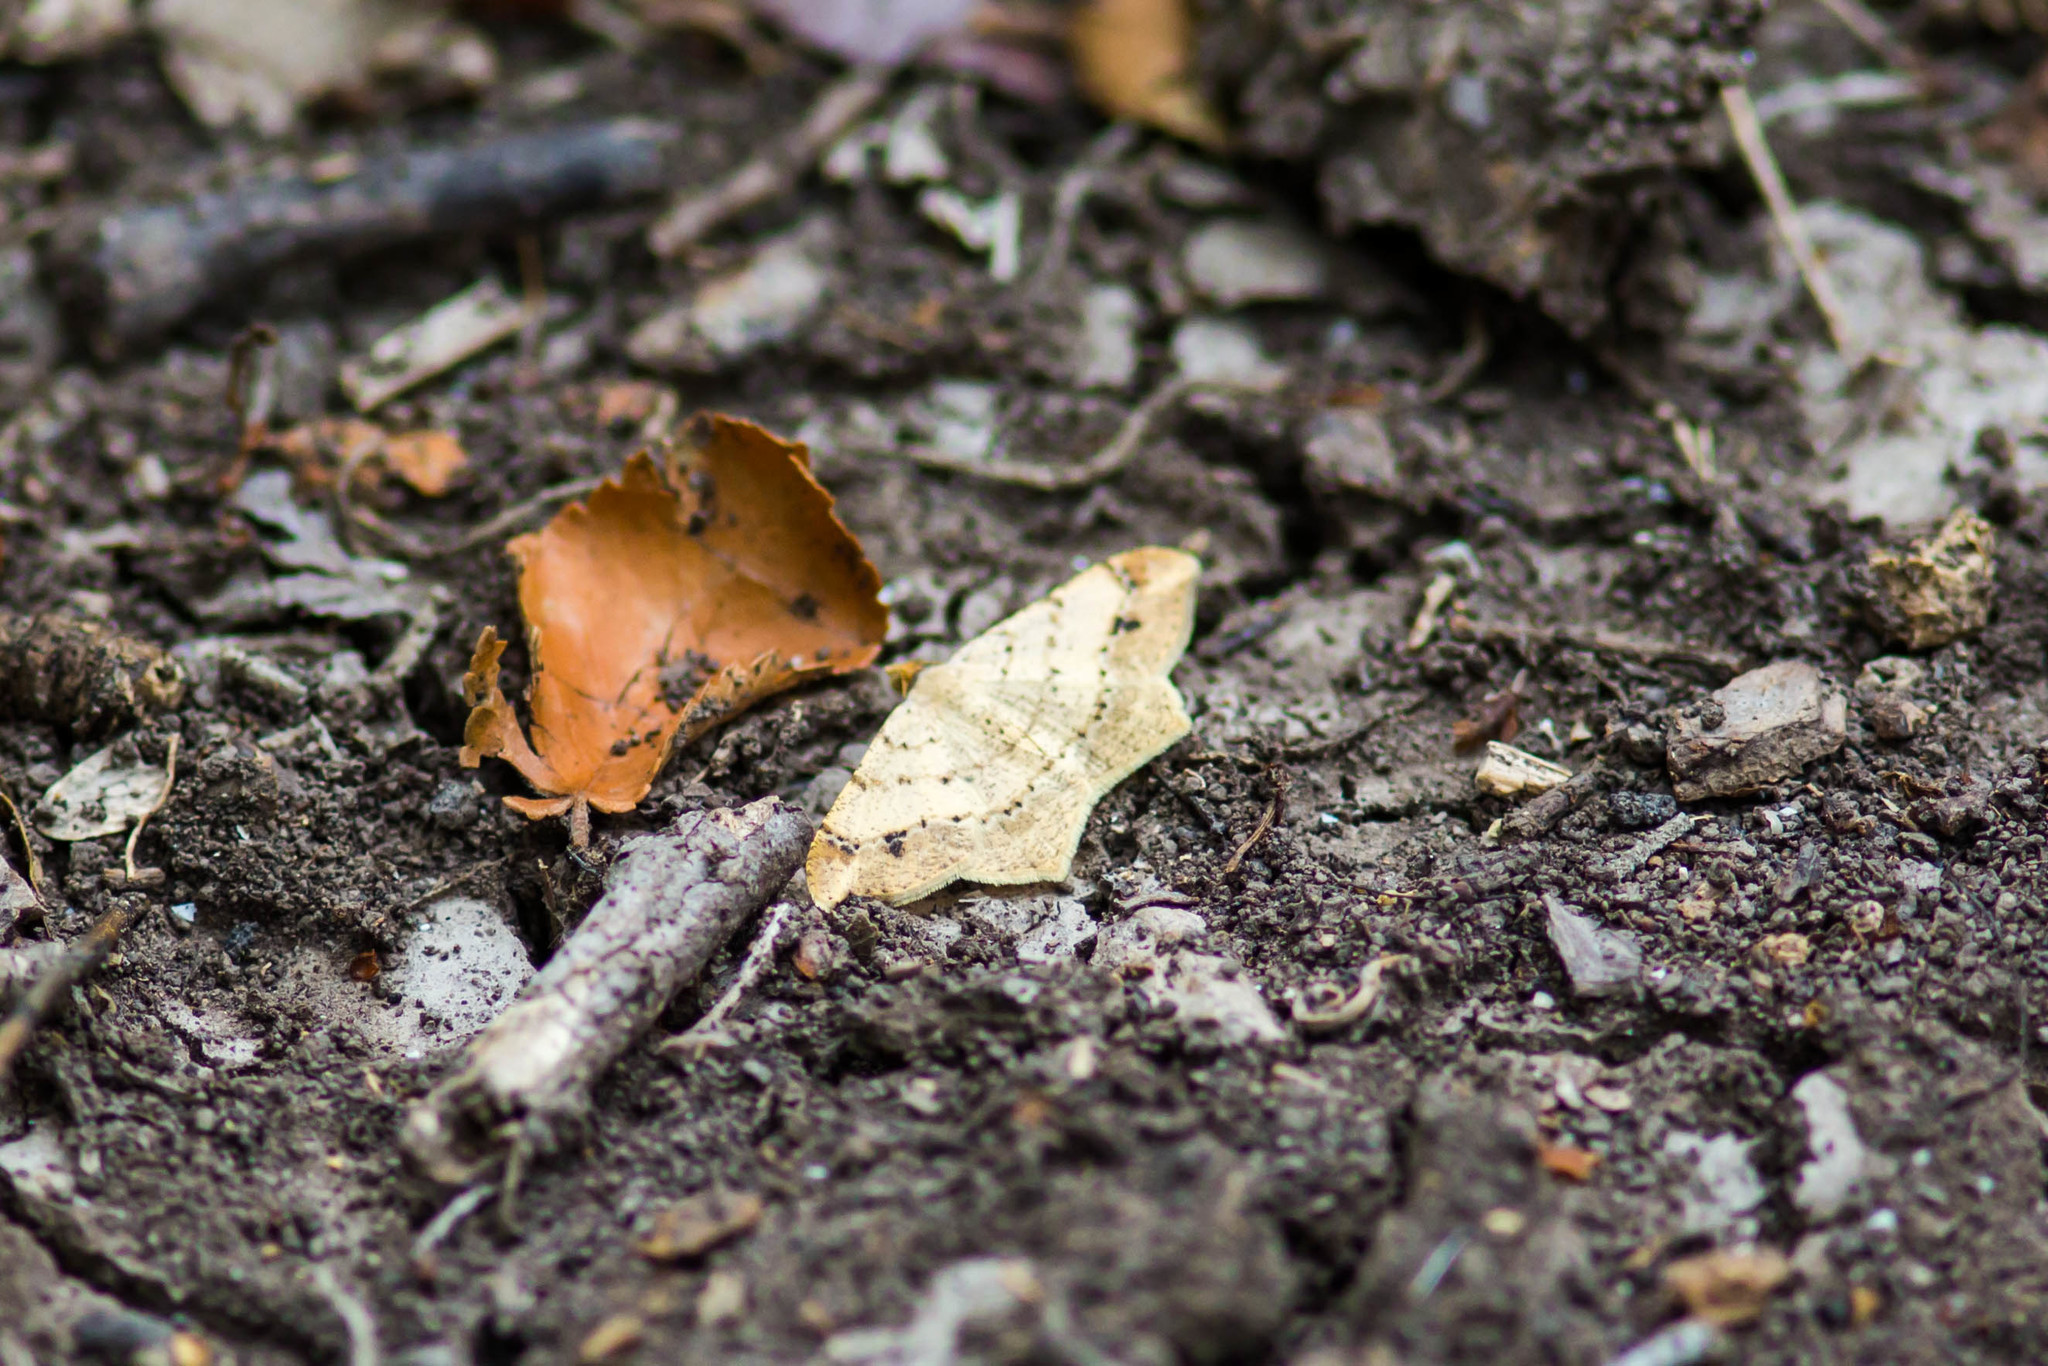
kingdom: Animalia
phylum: Arthropoda
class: Insecta
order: Lepidoptera
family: Geometridae
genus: Macaria
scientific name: Macaria abydata
